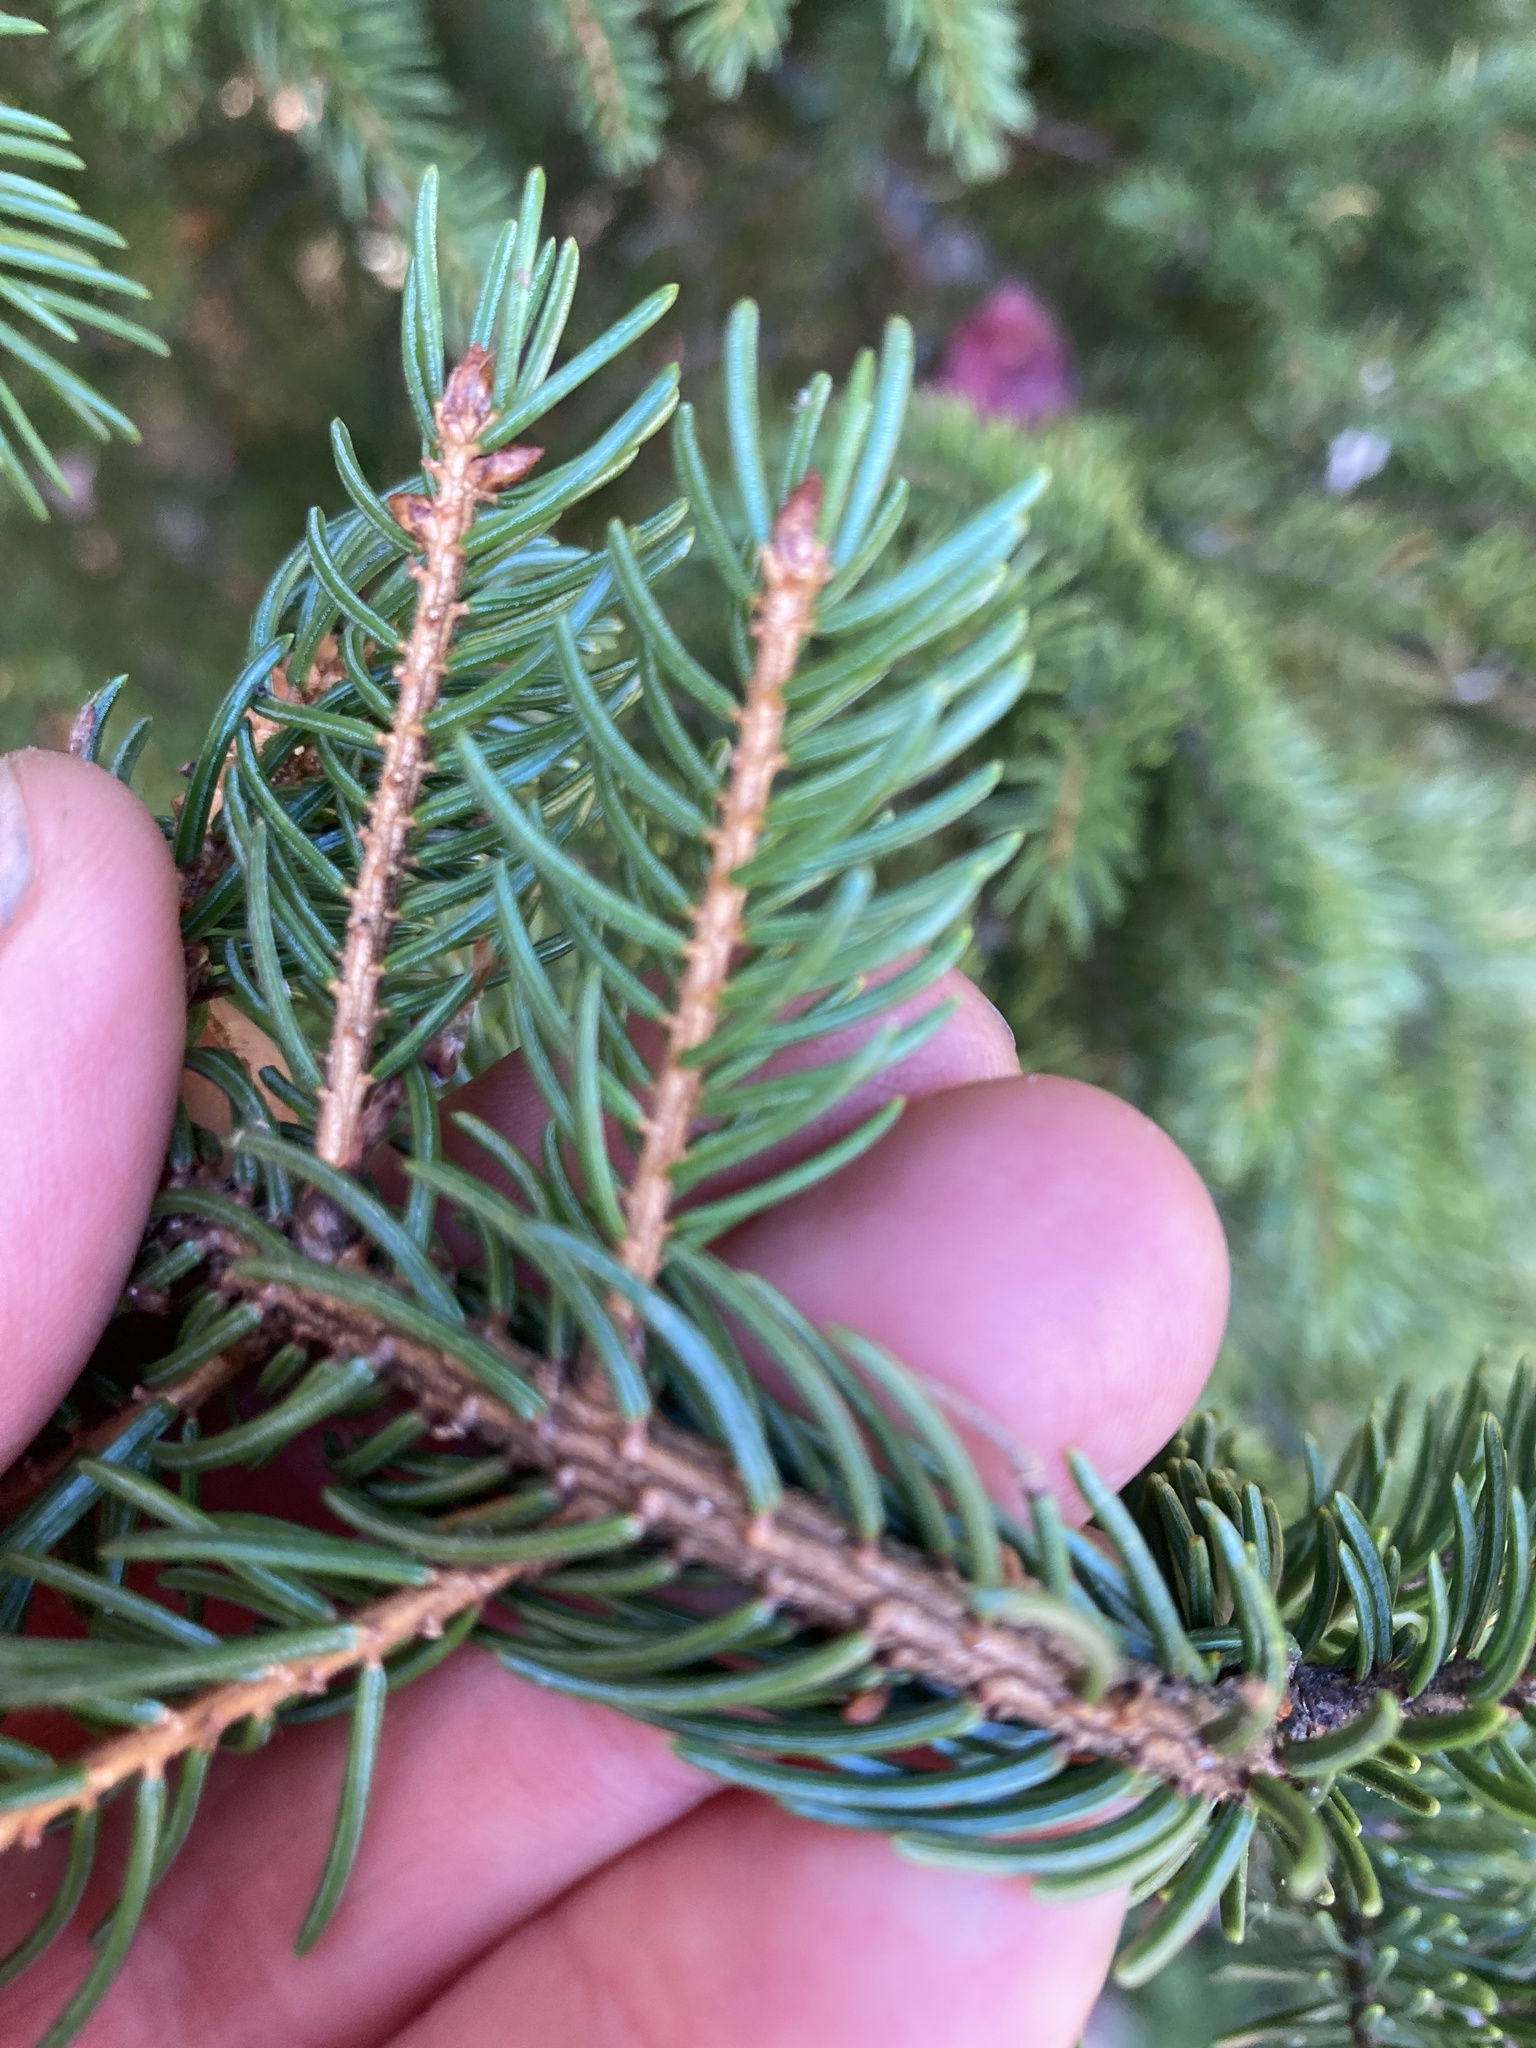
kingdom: Plantae
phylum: Tracheophyta
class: Pinopsida
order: Pinales
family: Pinaceae
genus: Picea
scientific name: Picea rubens
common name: Red spruce
